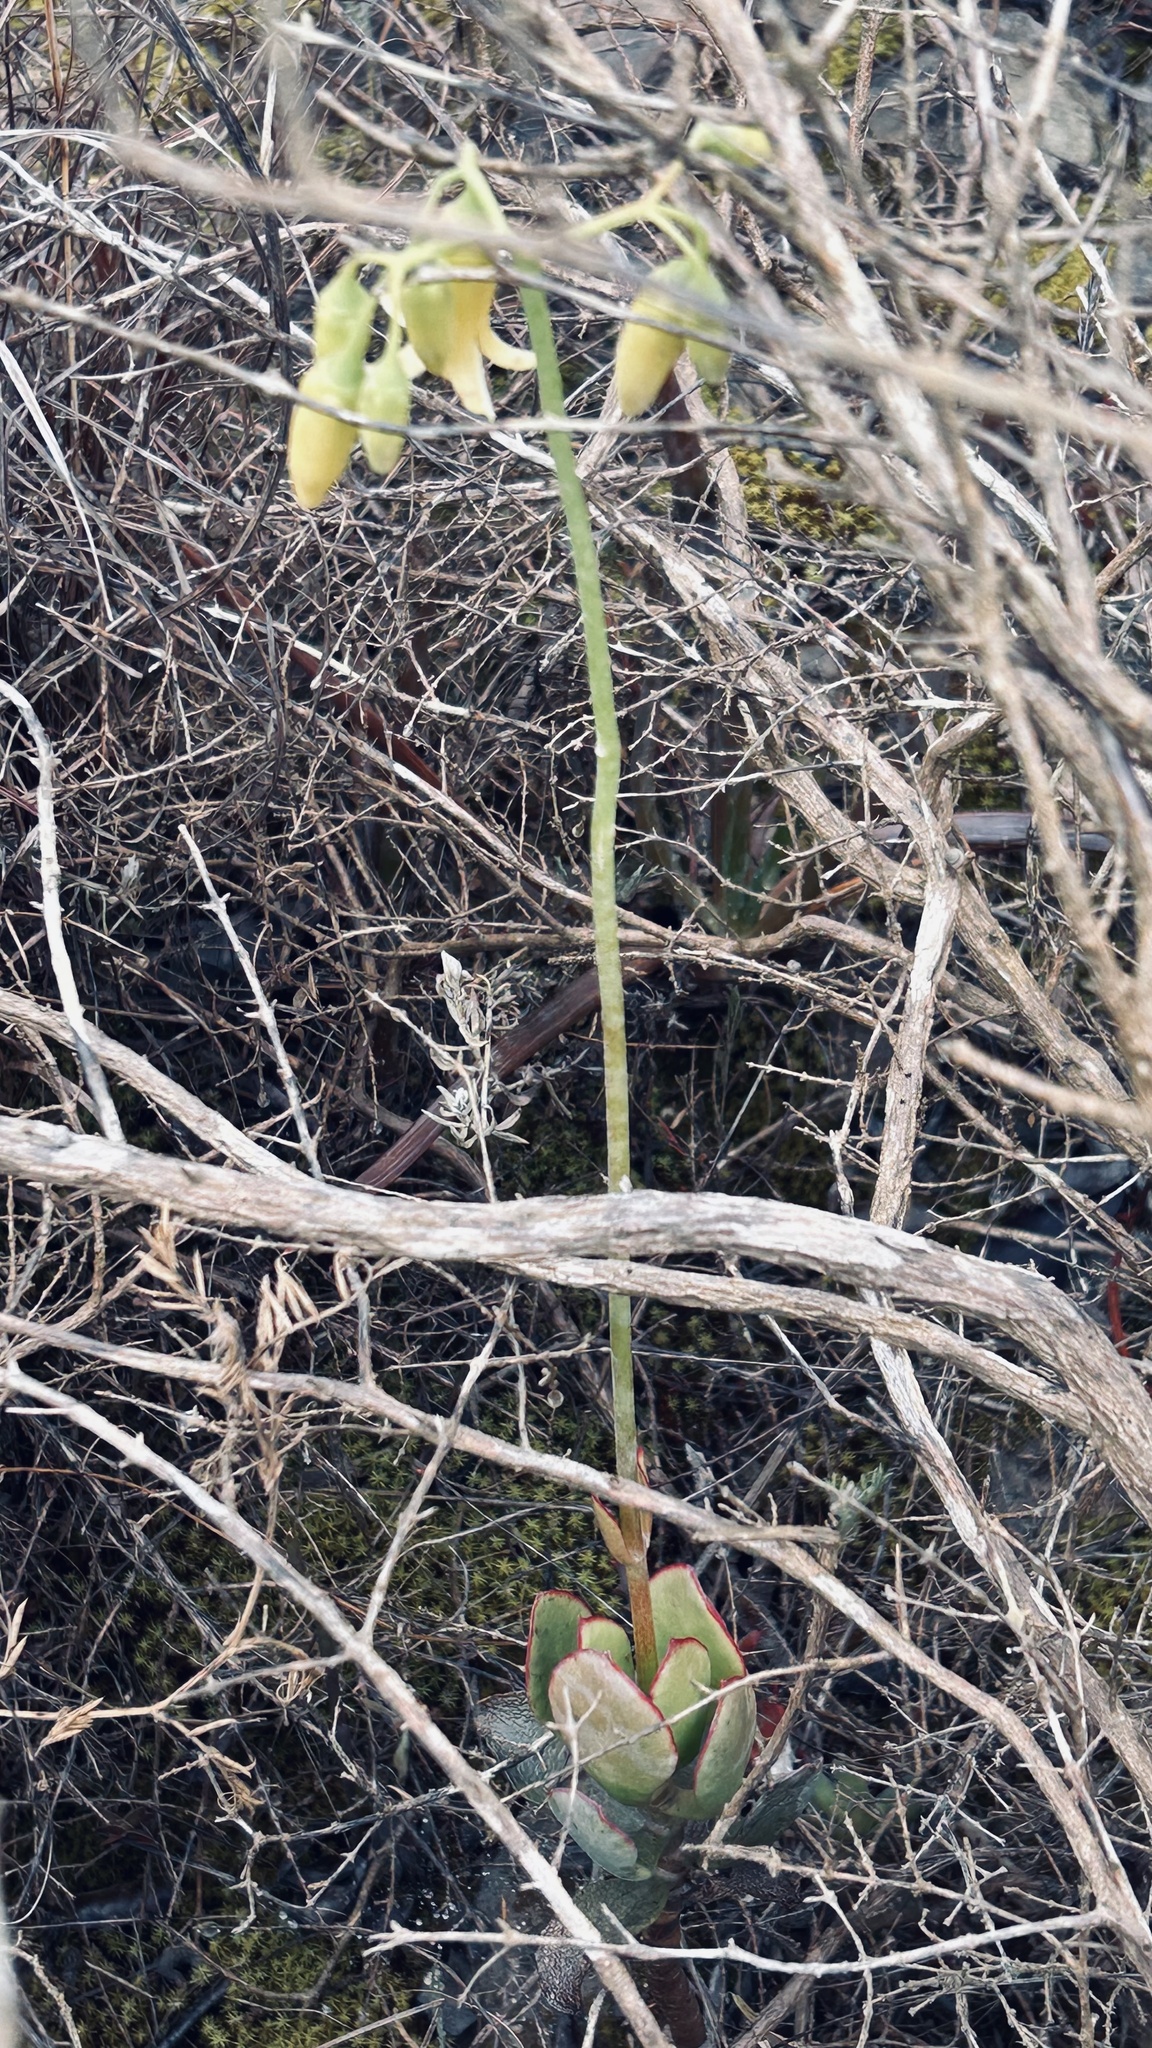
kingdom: Plantae
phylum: Tracheophyta
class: Magnoliopsida
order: Saxifragales
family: Crassulaceae
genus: Cotyledon
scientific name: Cotyledon xanthantha
